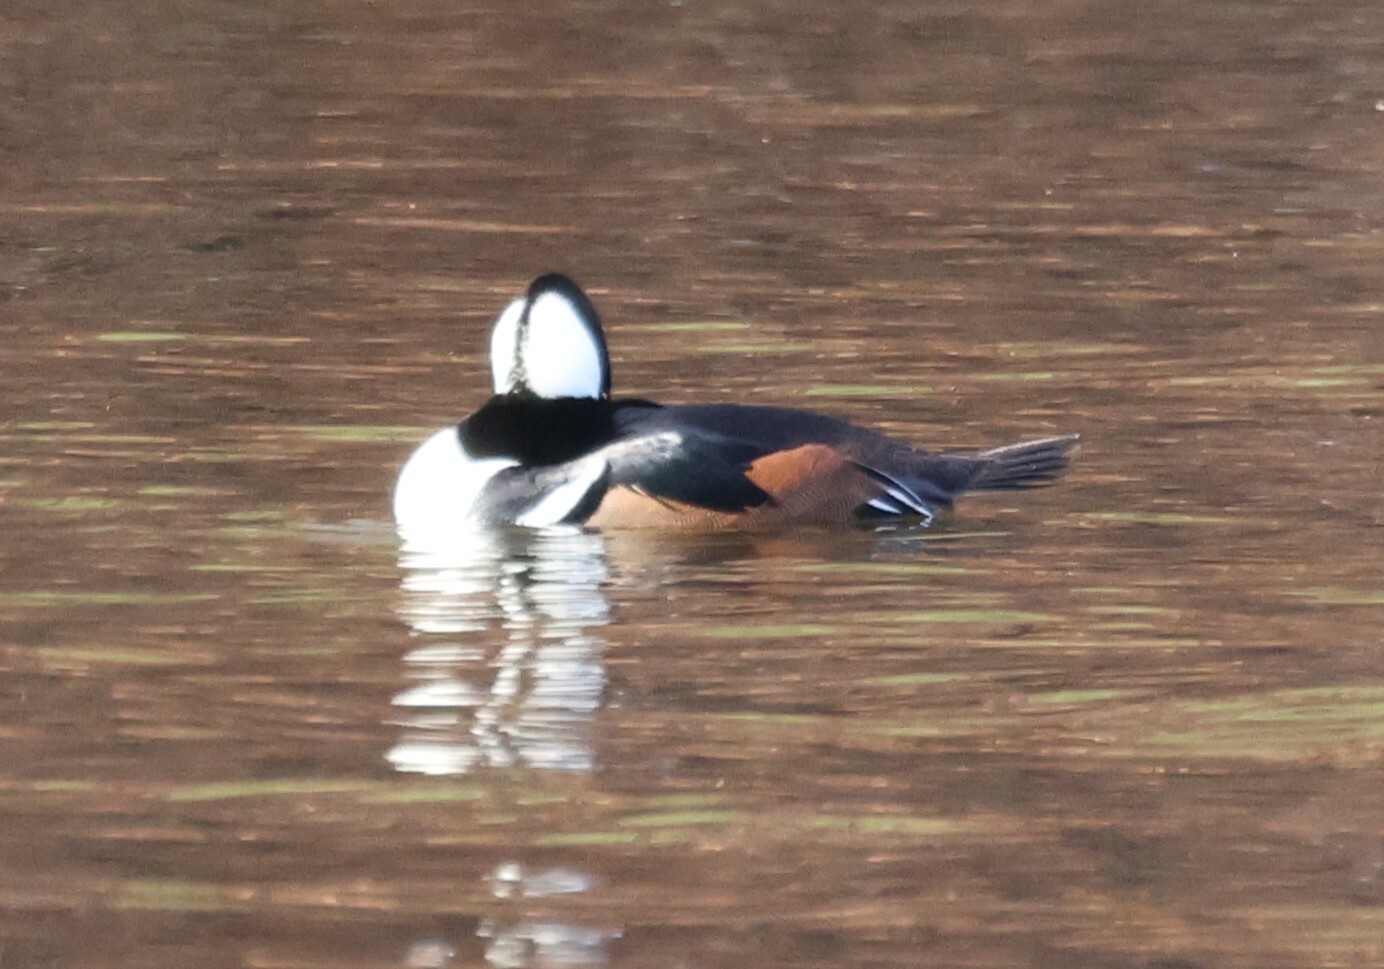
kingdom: Animalia
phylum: Chordata
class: Aves
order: Anseriformes
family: Anatidae
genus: Lophodytes
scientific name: Lophodytes cucullatus
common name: Hooded merganser
